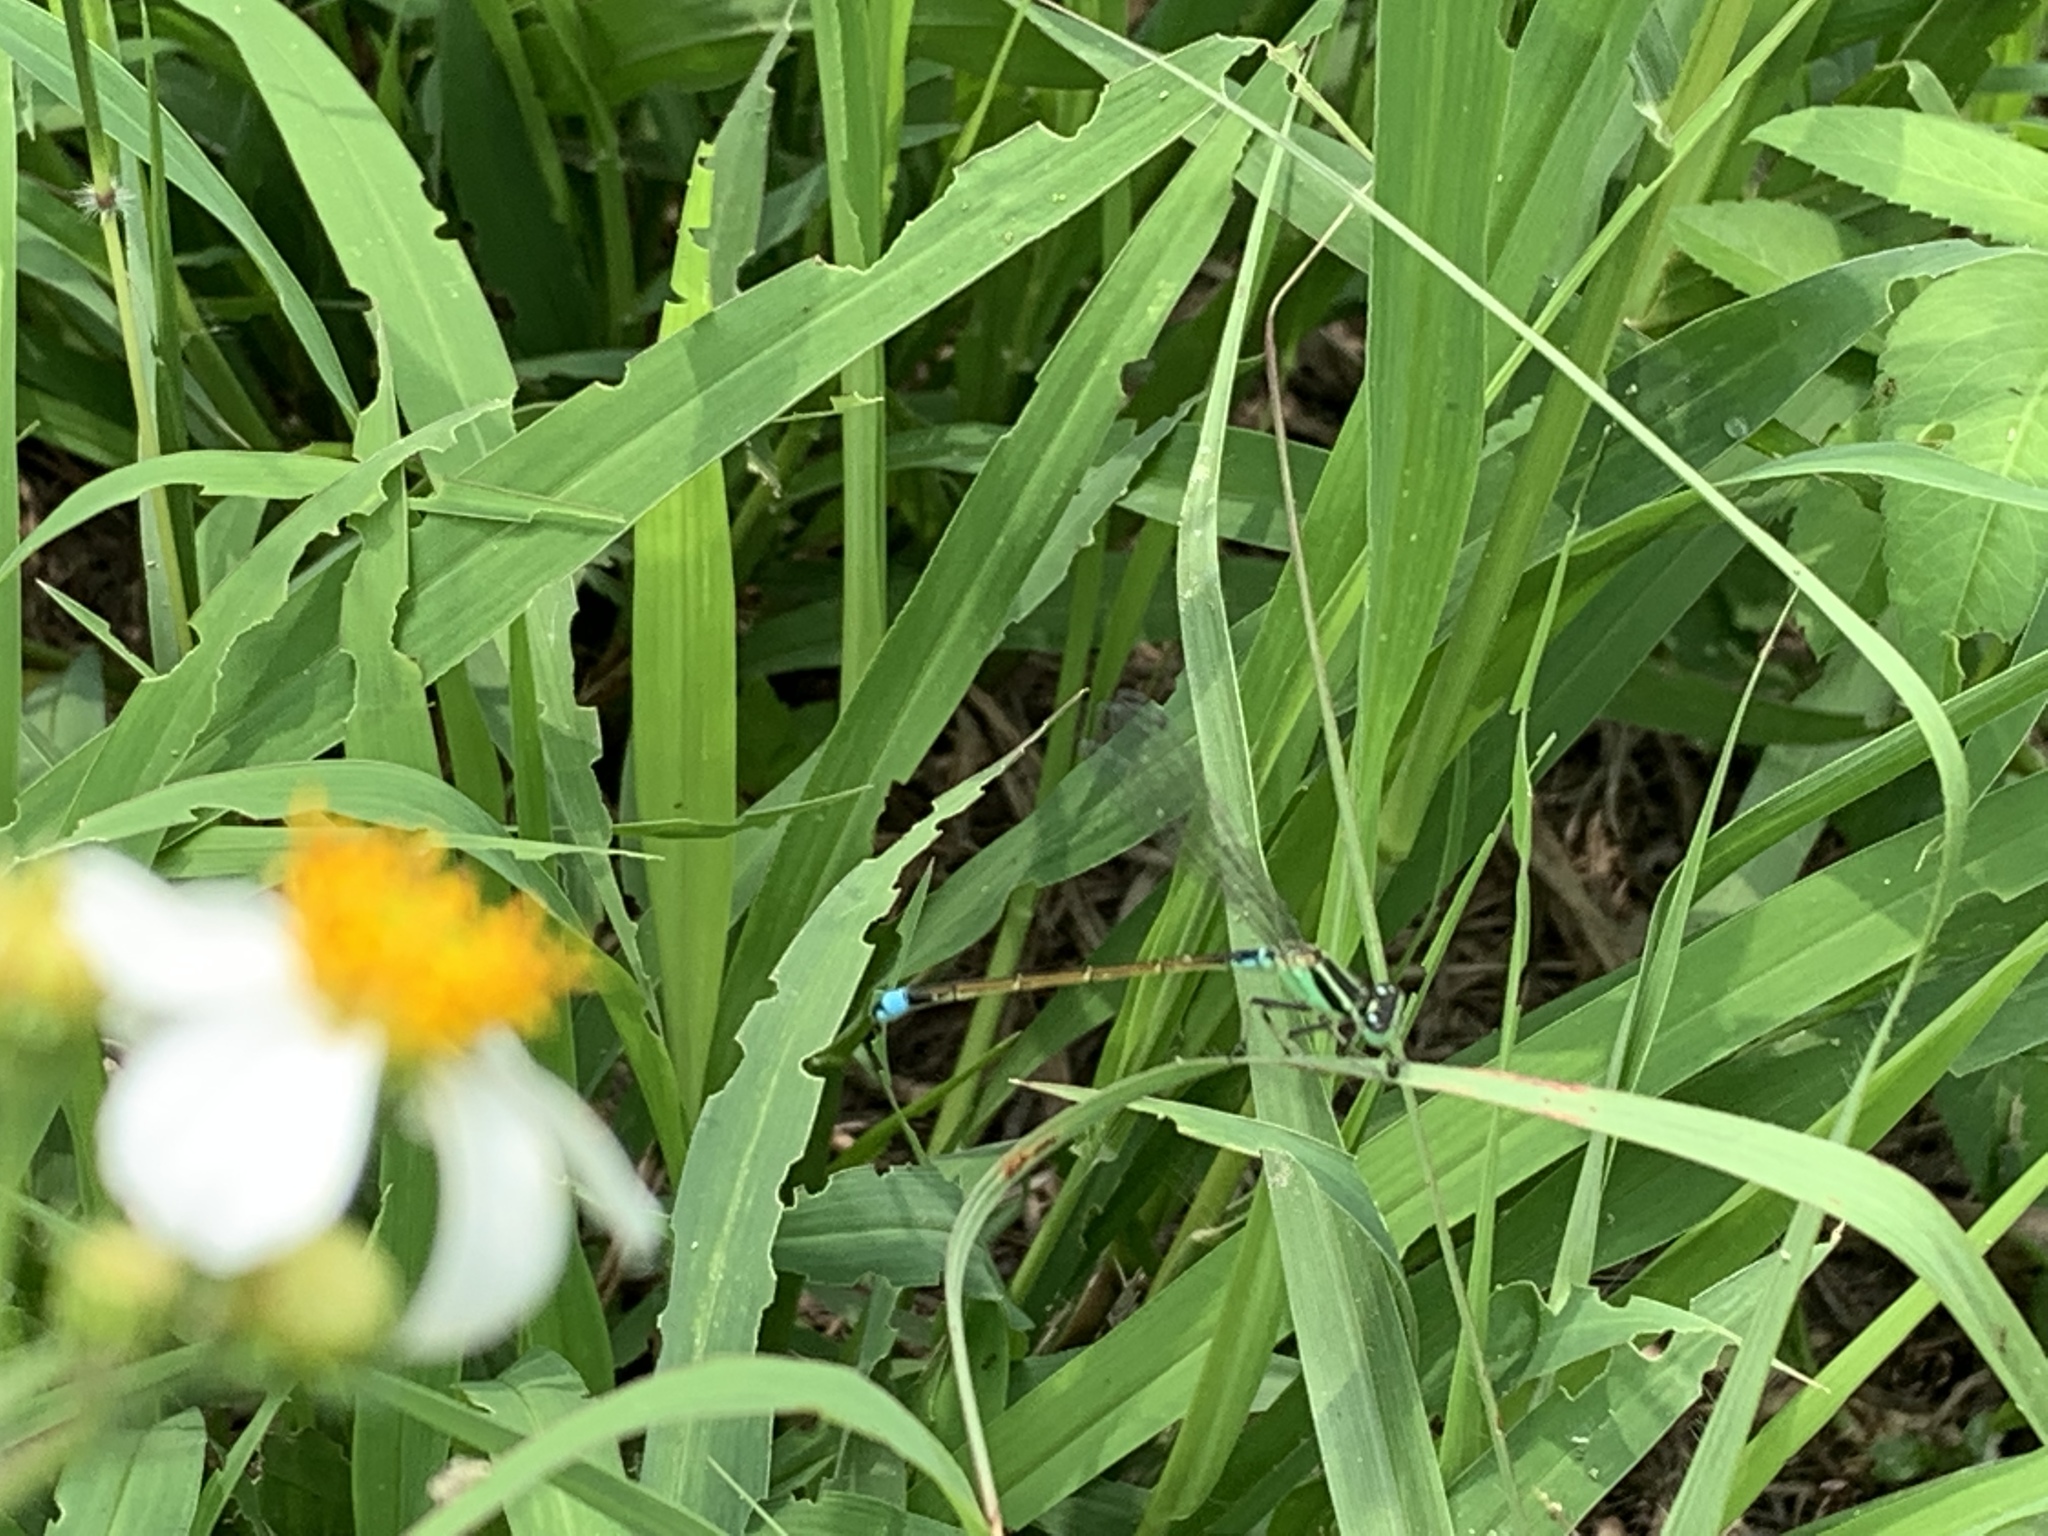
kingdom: Animalia
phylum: Arthropoda
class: Insecta
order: Odonata
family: Coenagrionidae
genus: Ischnura
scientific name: Ischnura senegalensis
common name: Tropical bluetail
